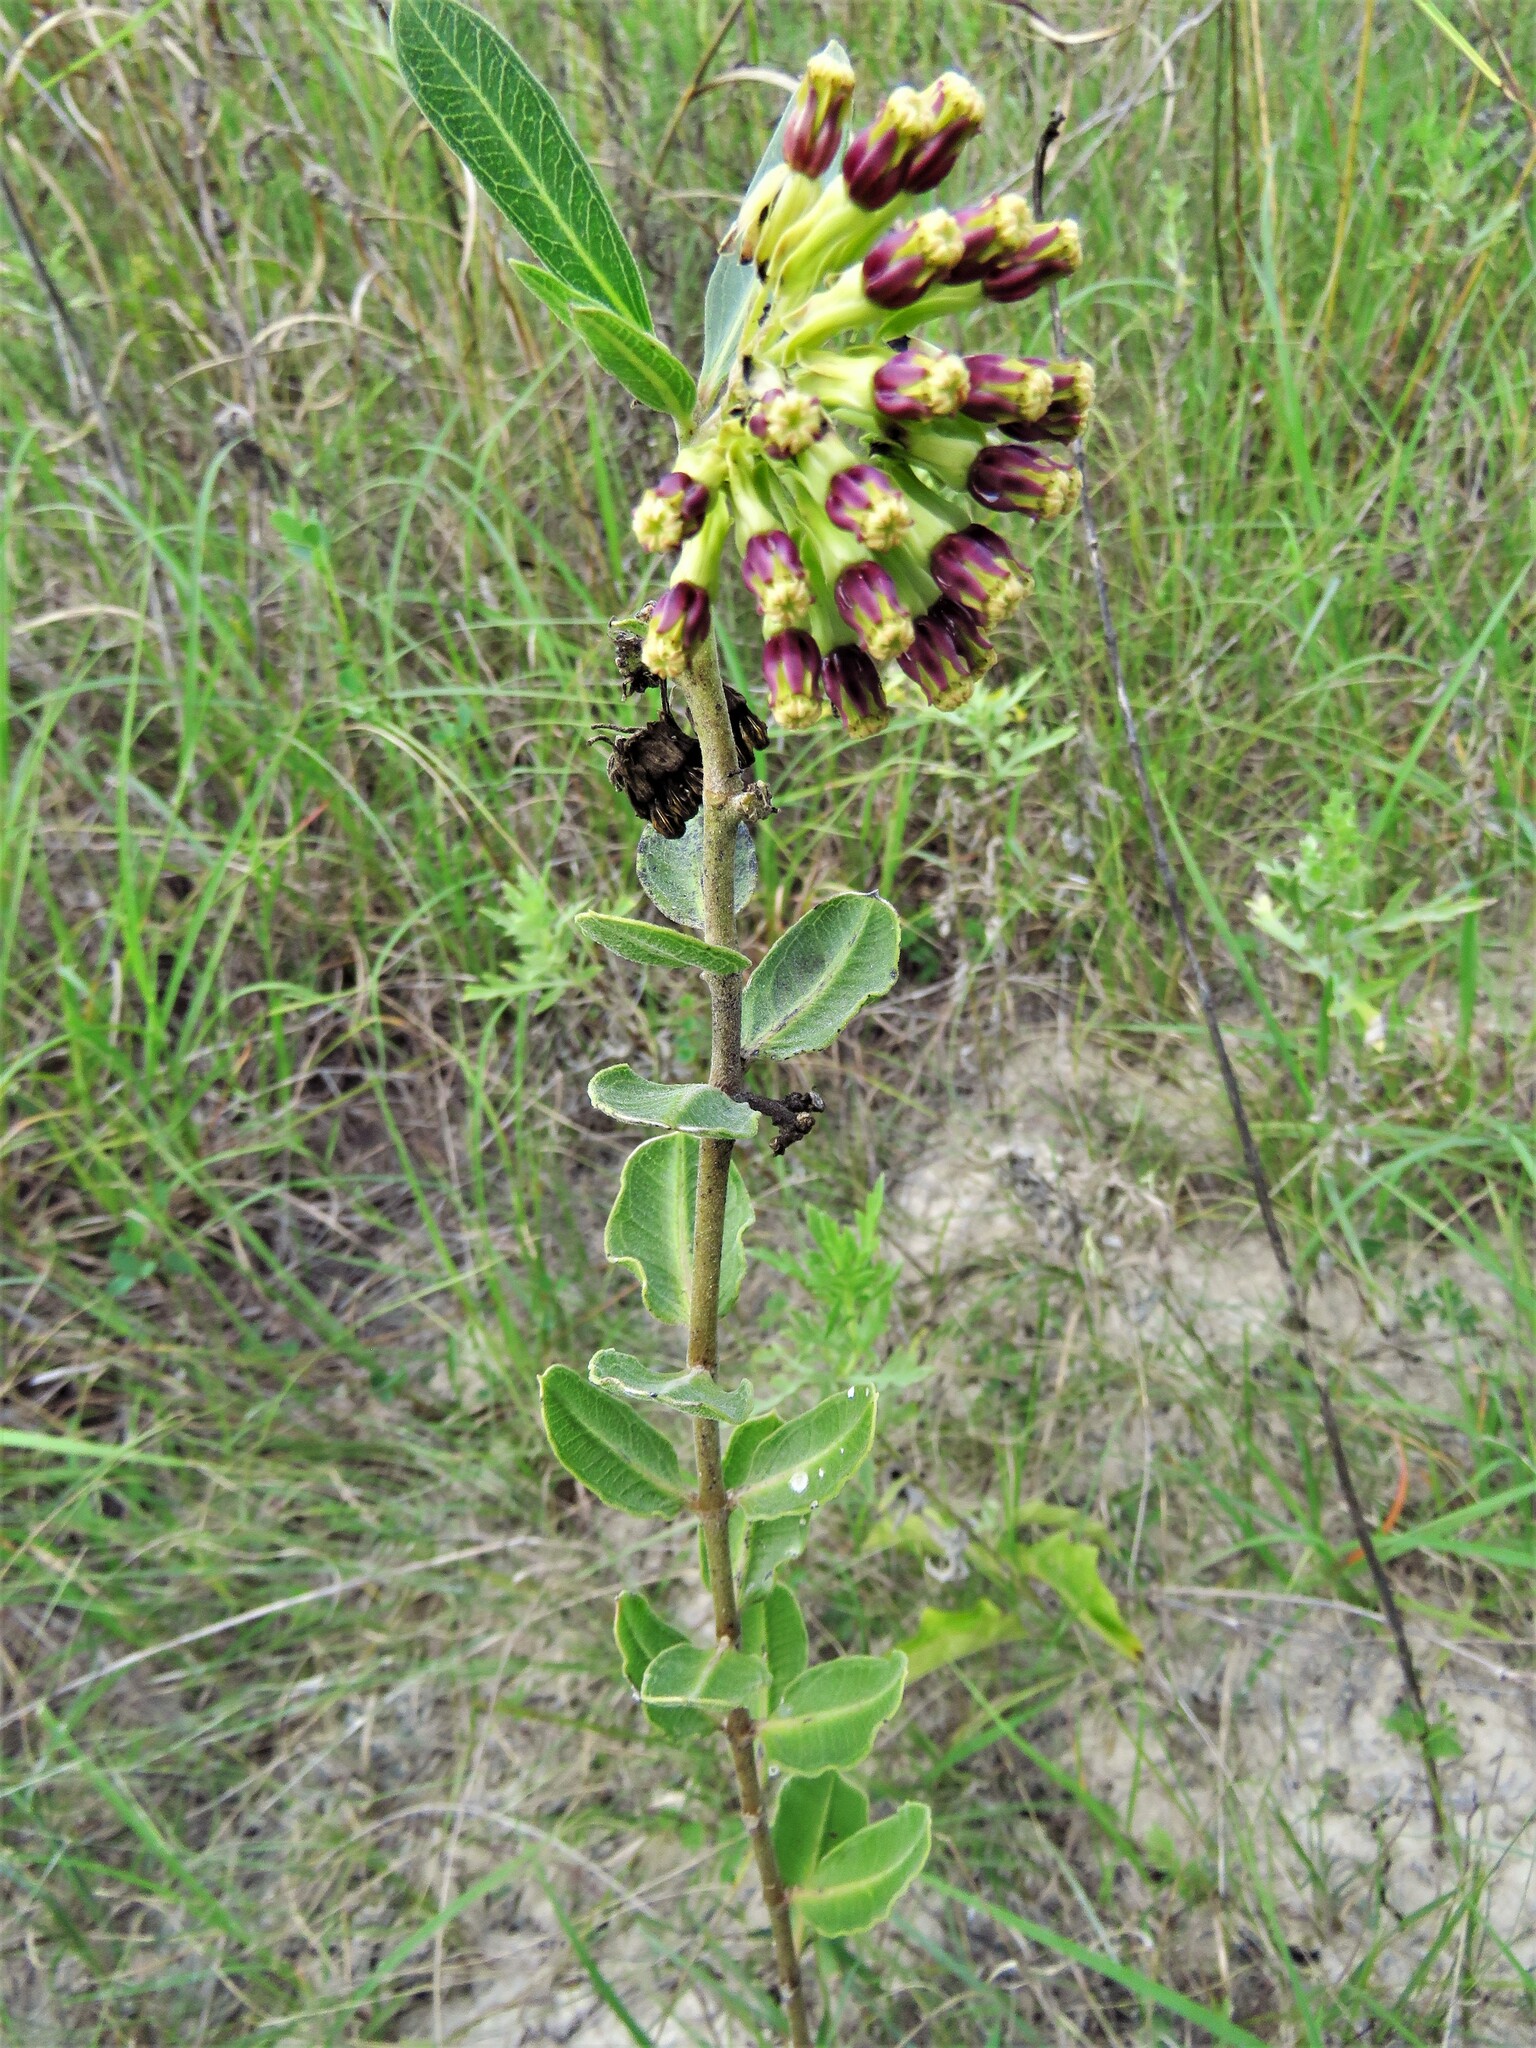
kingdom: Plantae
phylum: Tracheophyta
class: Magnoliopsida
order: Gentianales
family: Apocynaceae
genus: Asclepias
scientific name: Asclepias viridiflora
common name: Green comet milkweed
